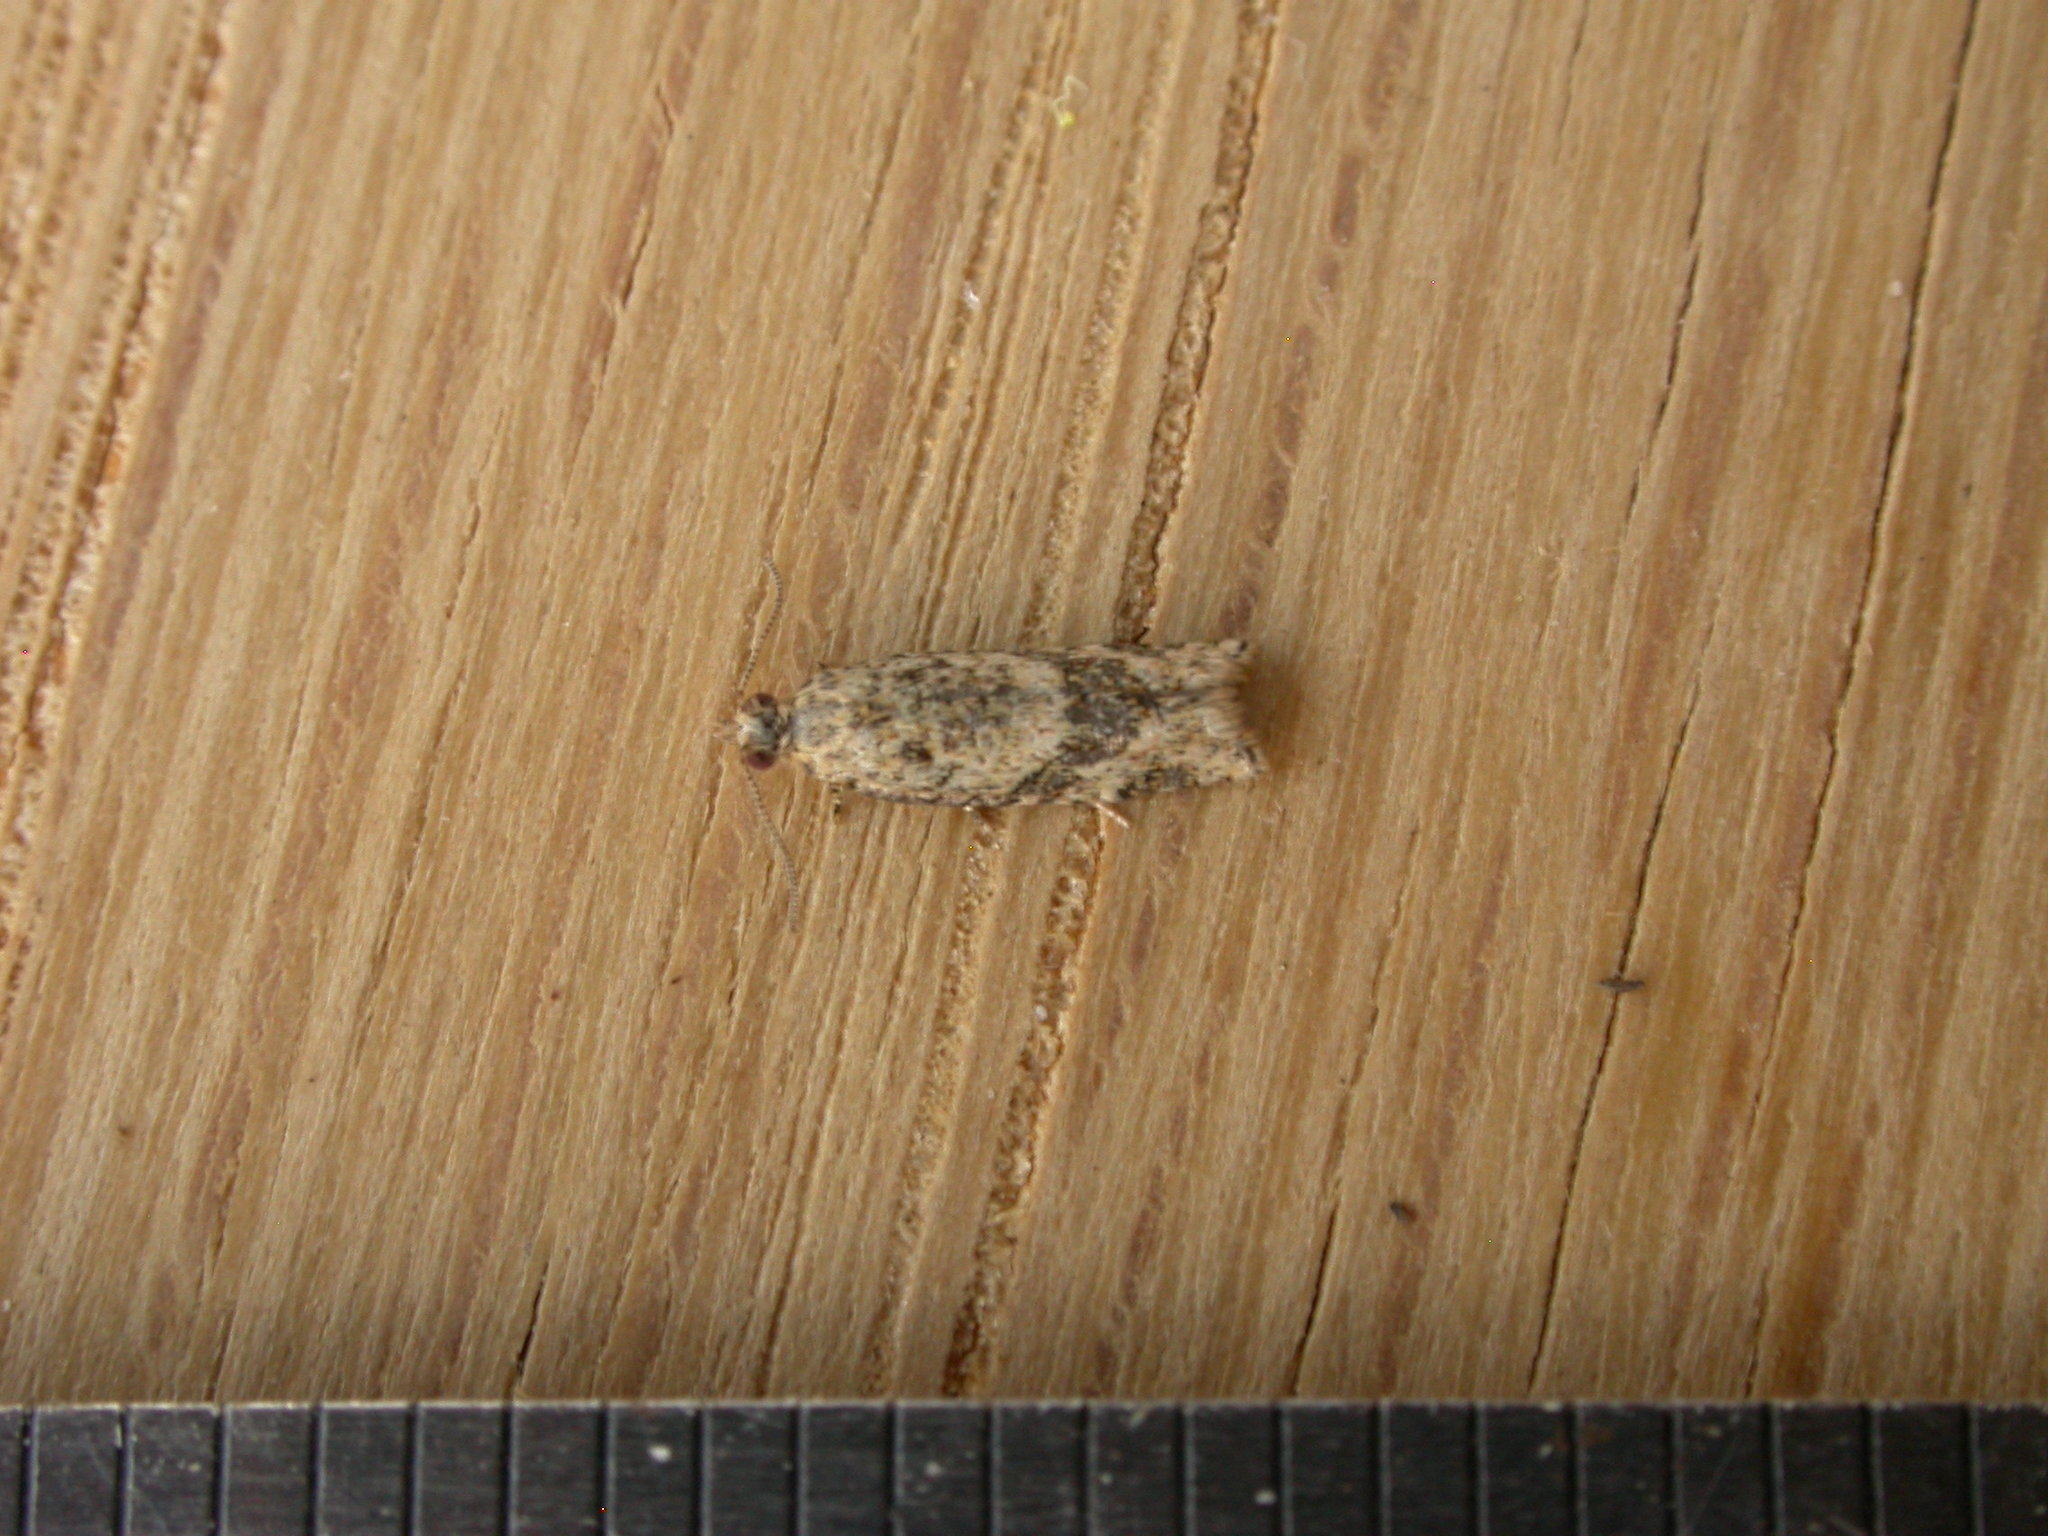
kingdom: Animalia
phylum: Arthropoda
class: Insecta
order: Lepidoptera
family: Tortricidae
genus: Isochorista
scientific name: Isochorista ranulana
